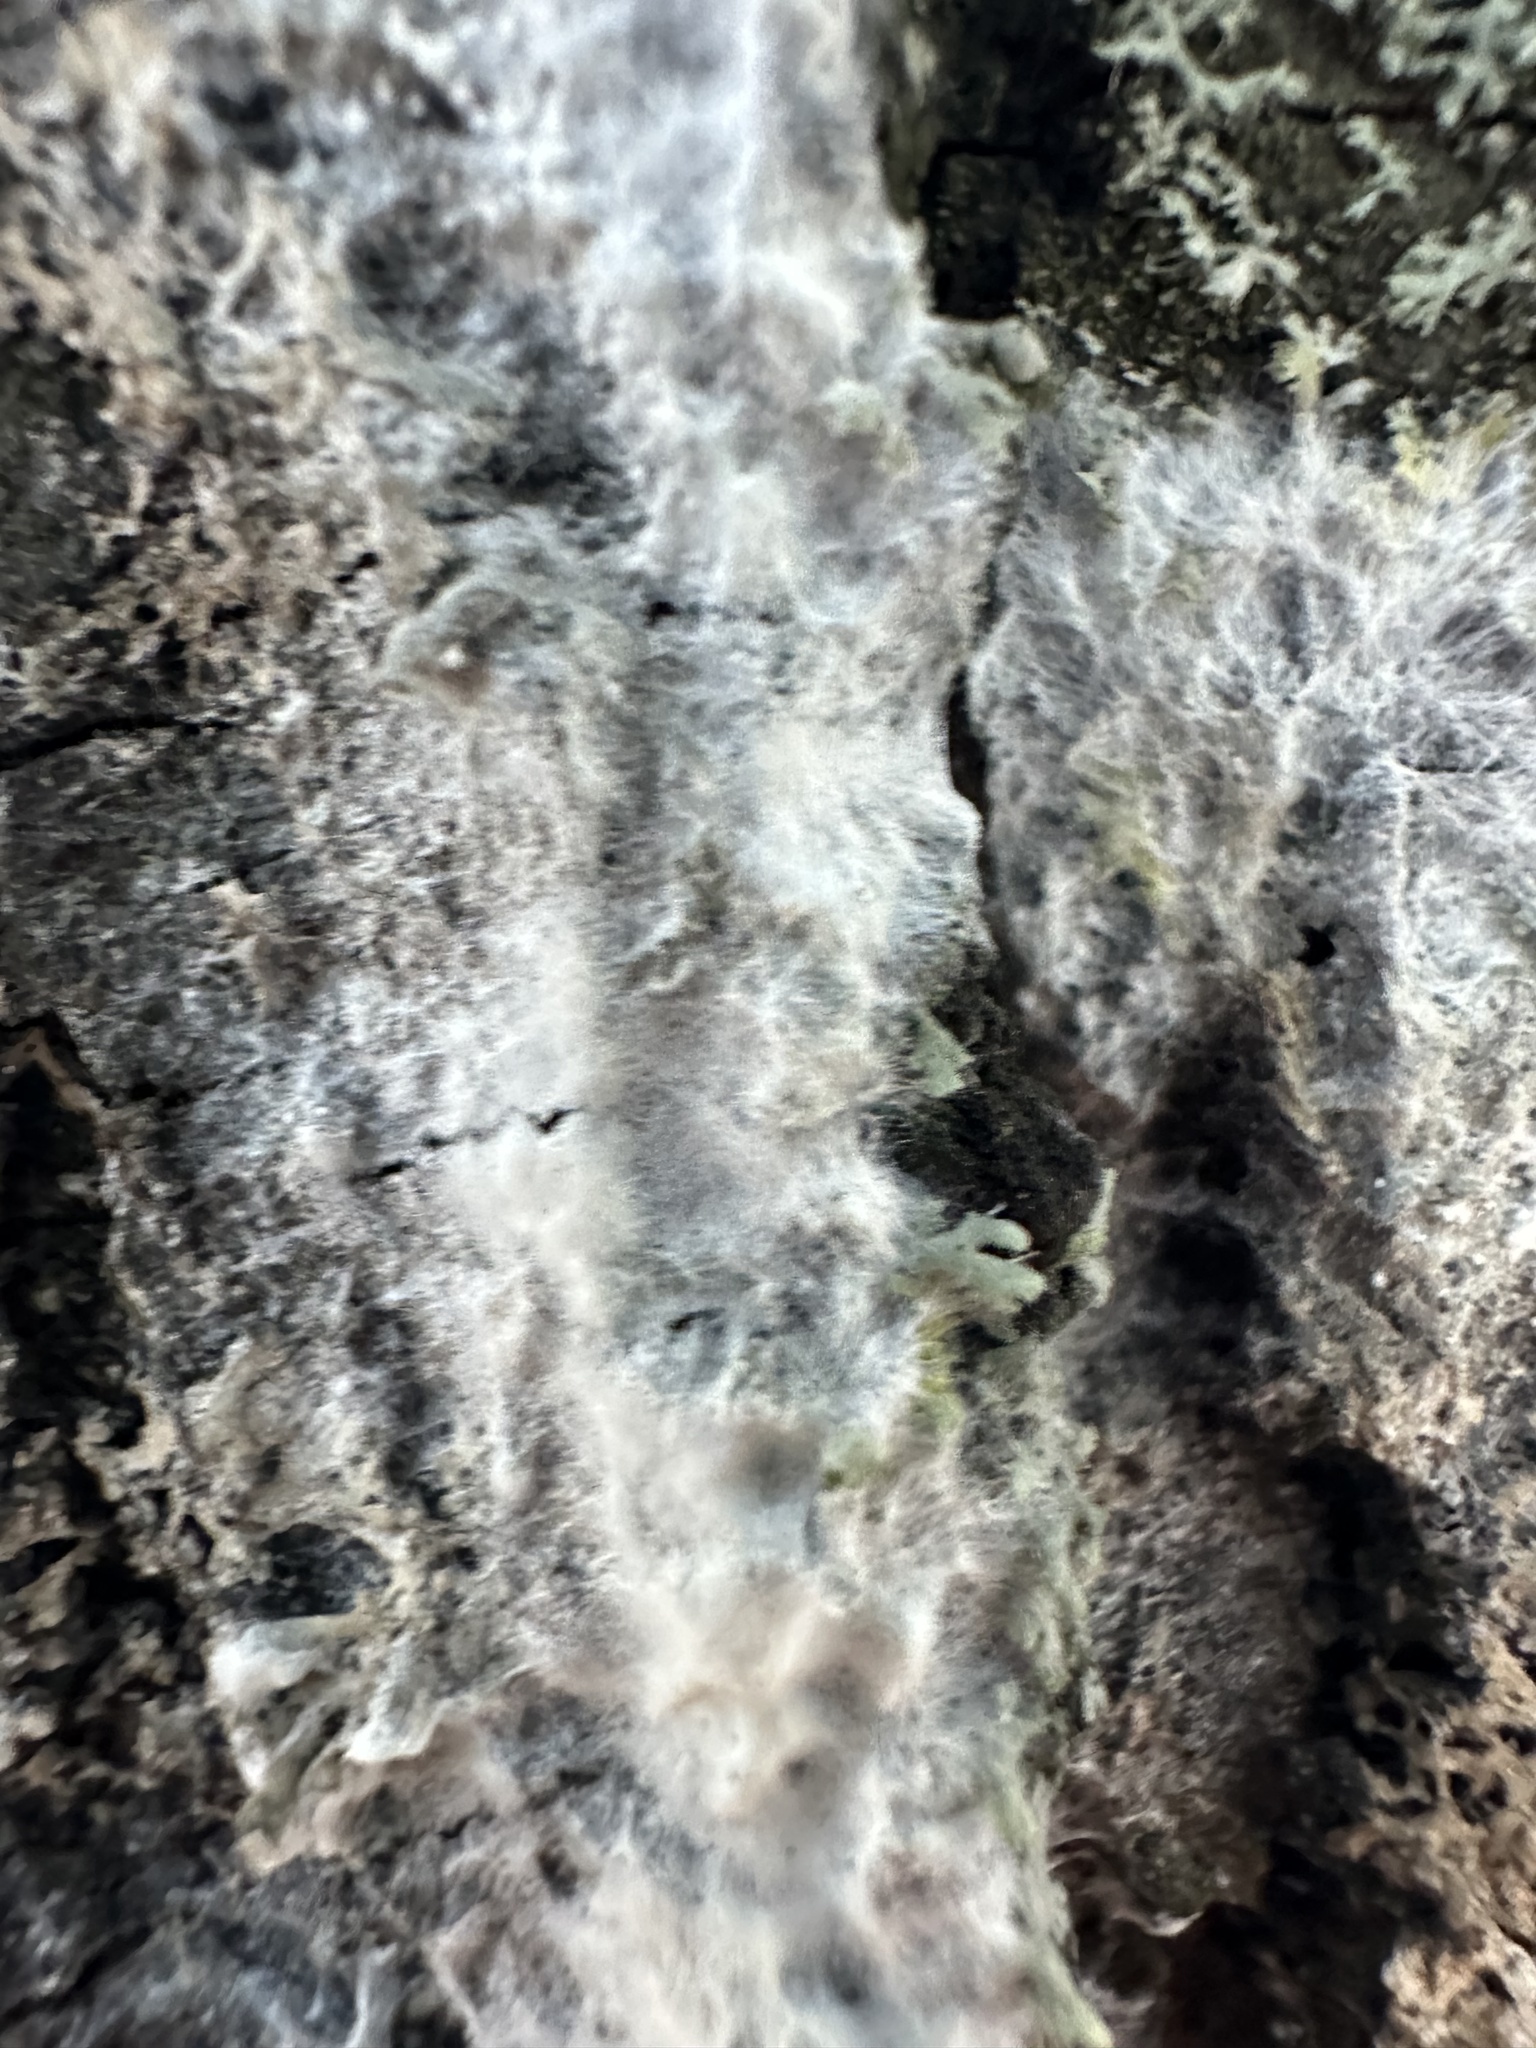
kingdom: Fungi
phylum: Basidiomycota
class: Agaricomycetes
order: Atheliales
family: Atheliaceae
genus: Athelia
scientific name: Athelia arachnoidea
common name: Candelabra duster
